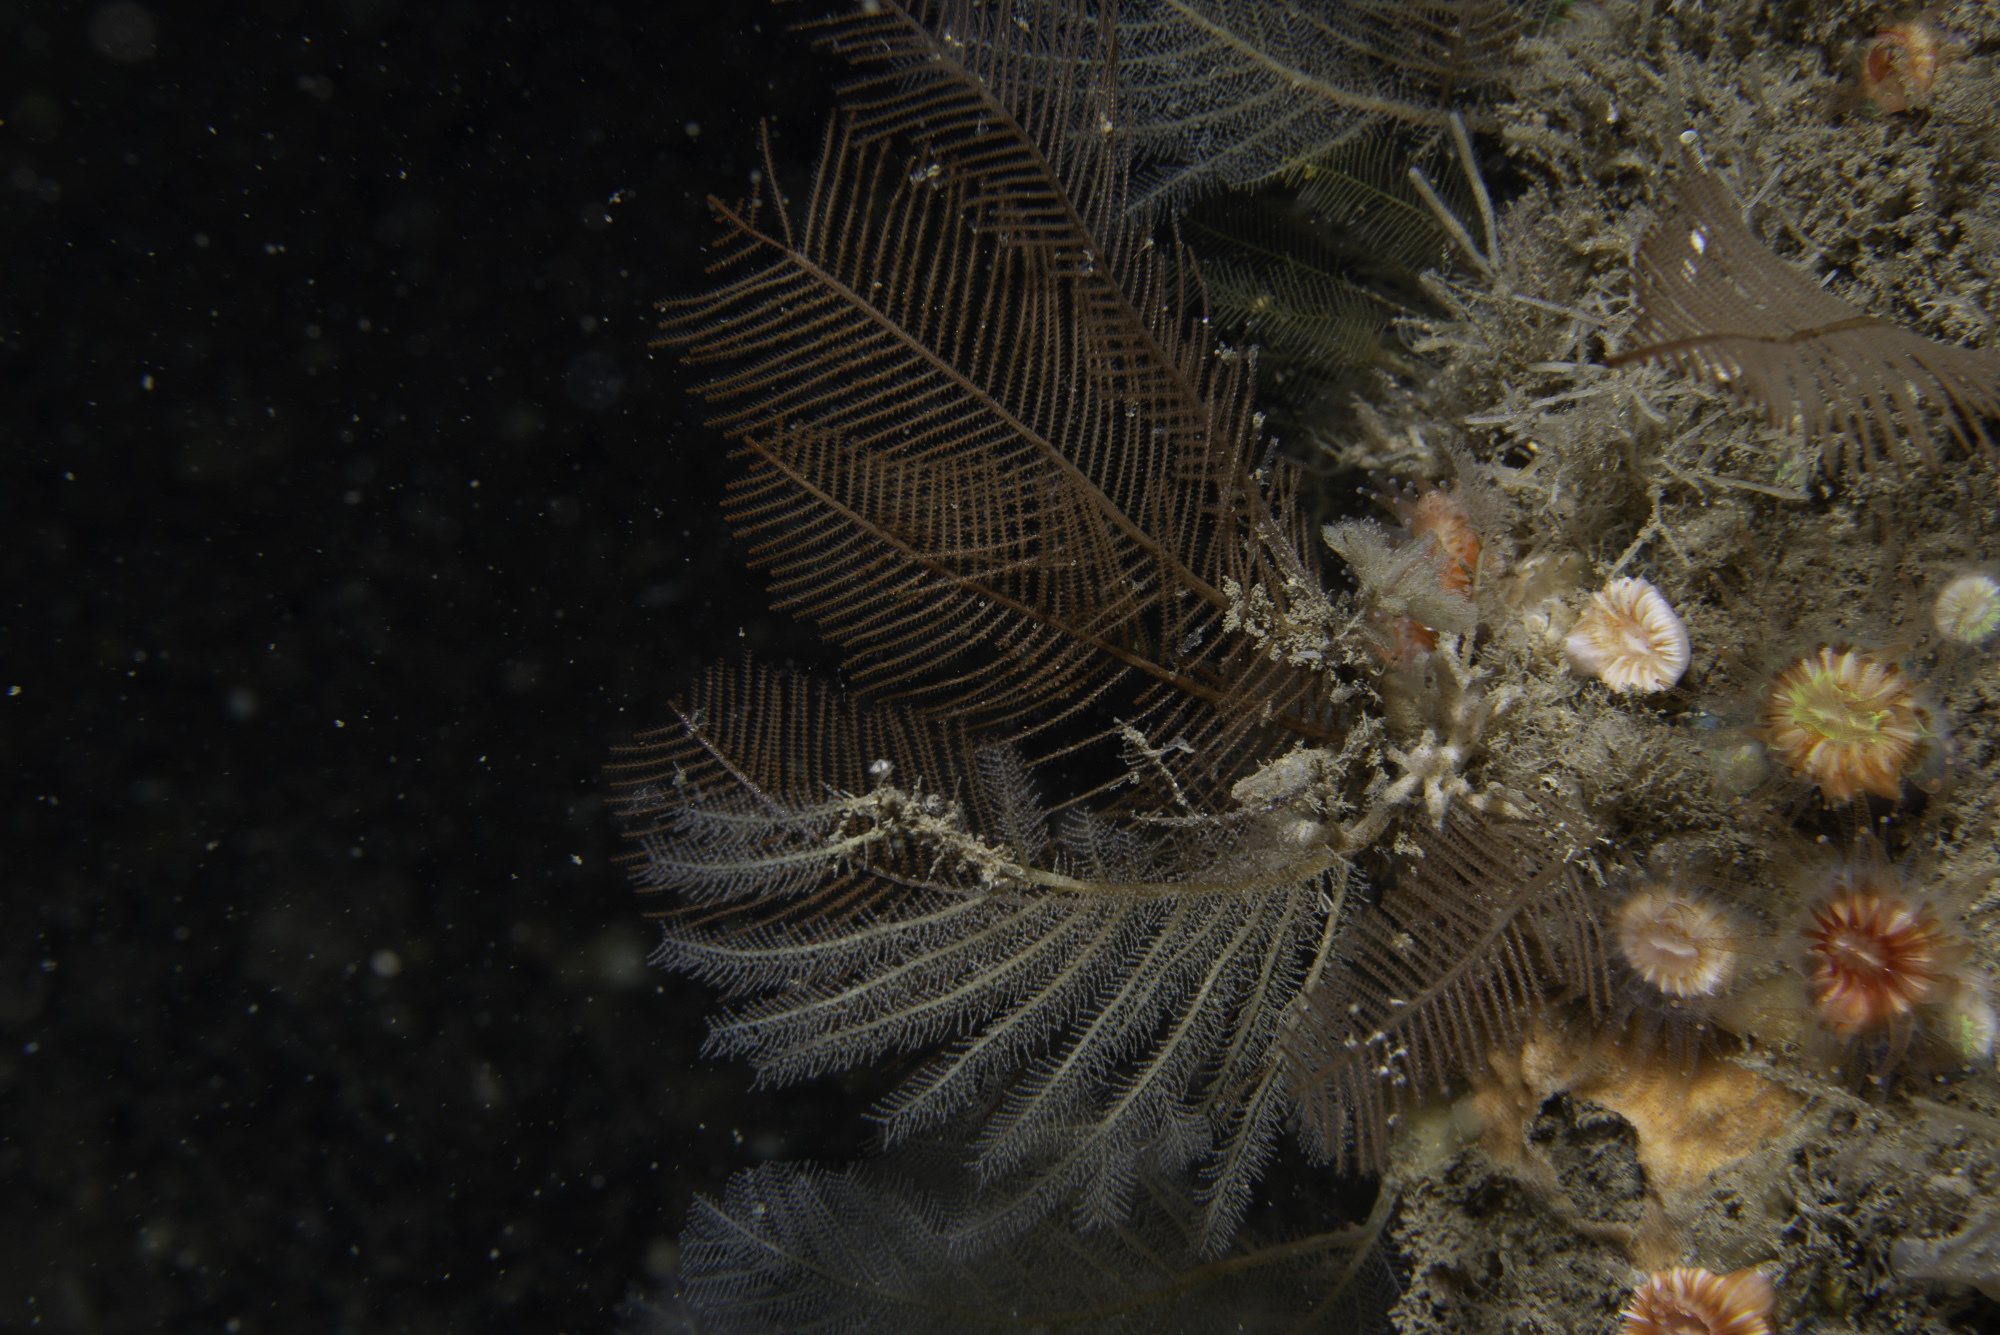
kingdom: Animalia
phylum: Cnidaria
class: Hydrozoa
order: Leptothecata
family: Sertulariidae
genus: Diphasia
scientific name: Diphasia alata
